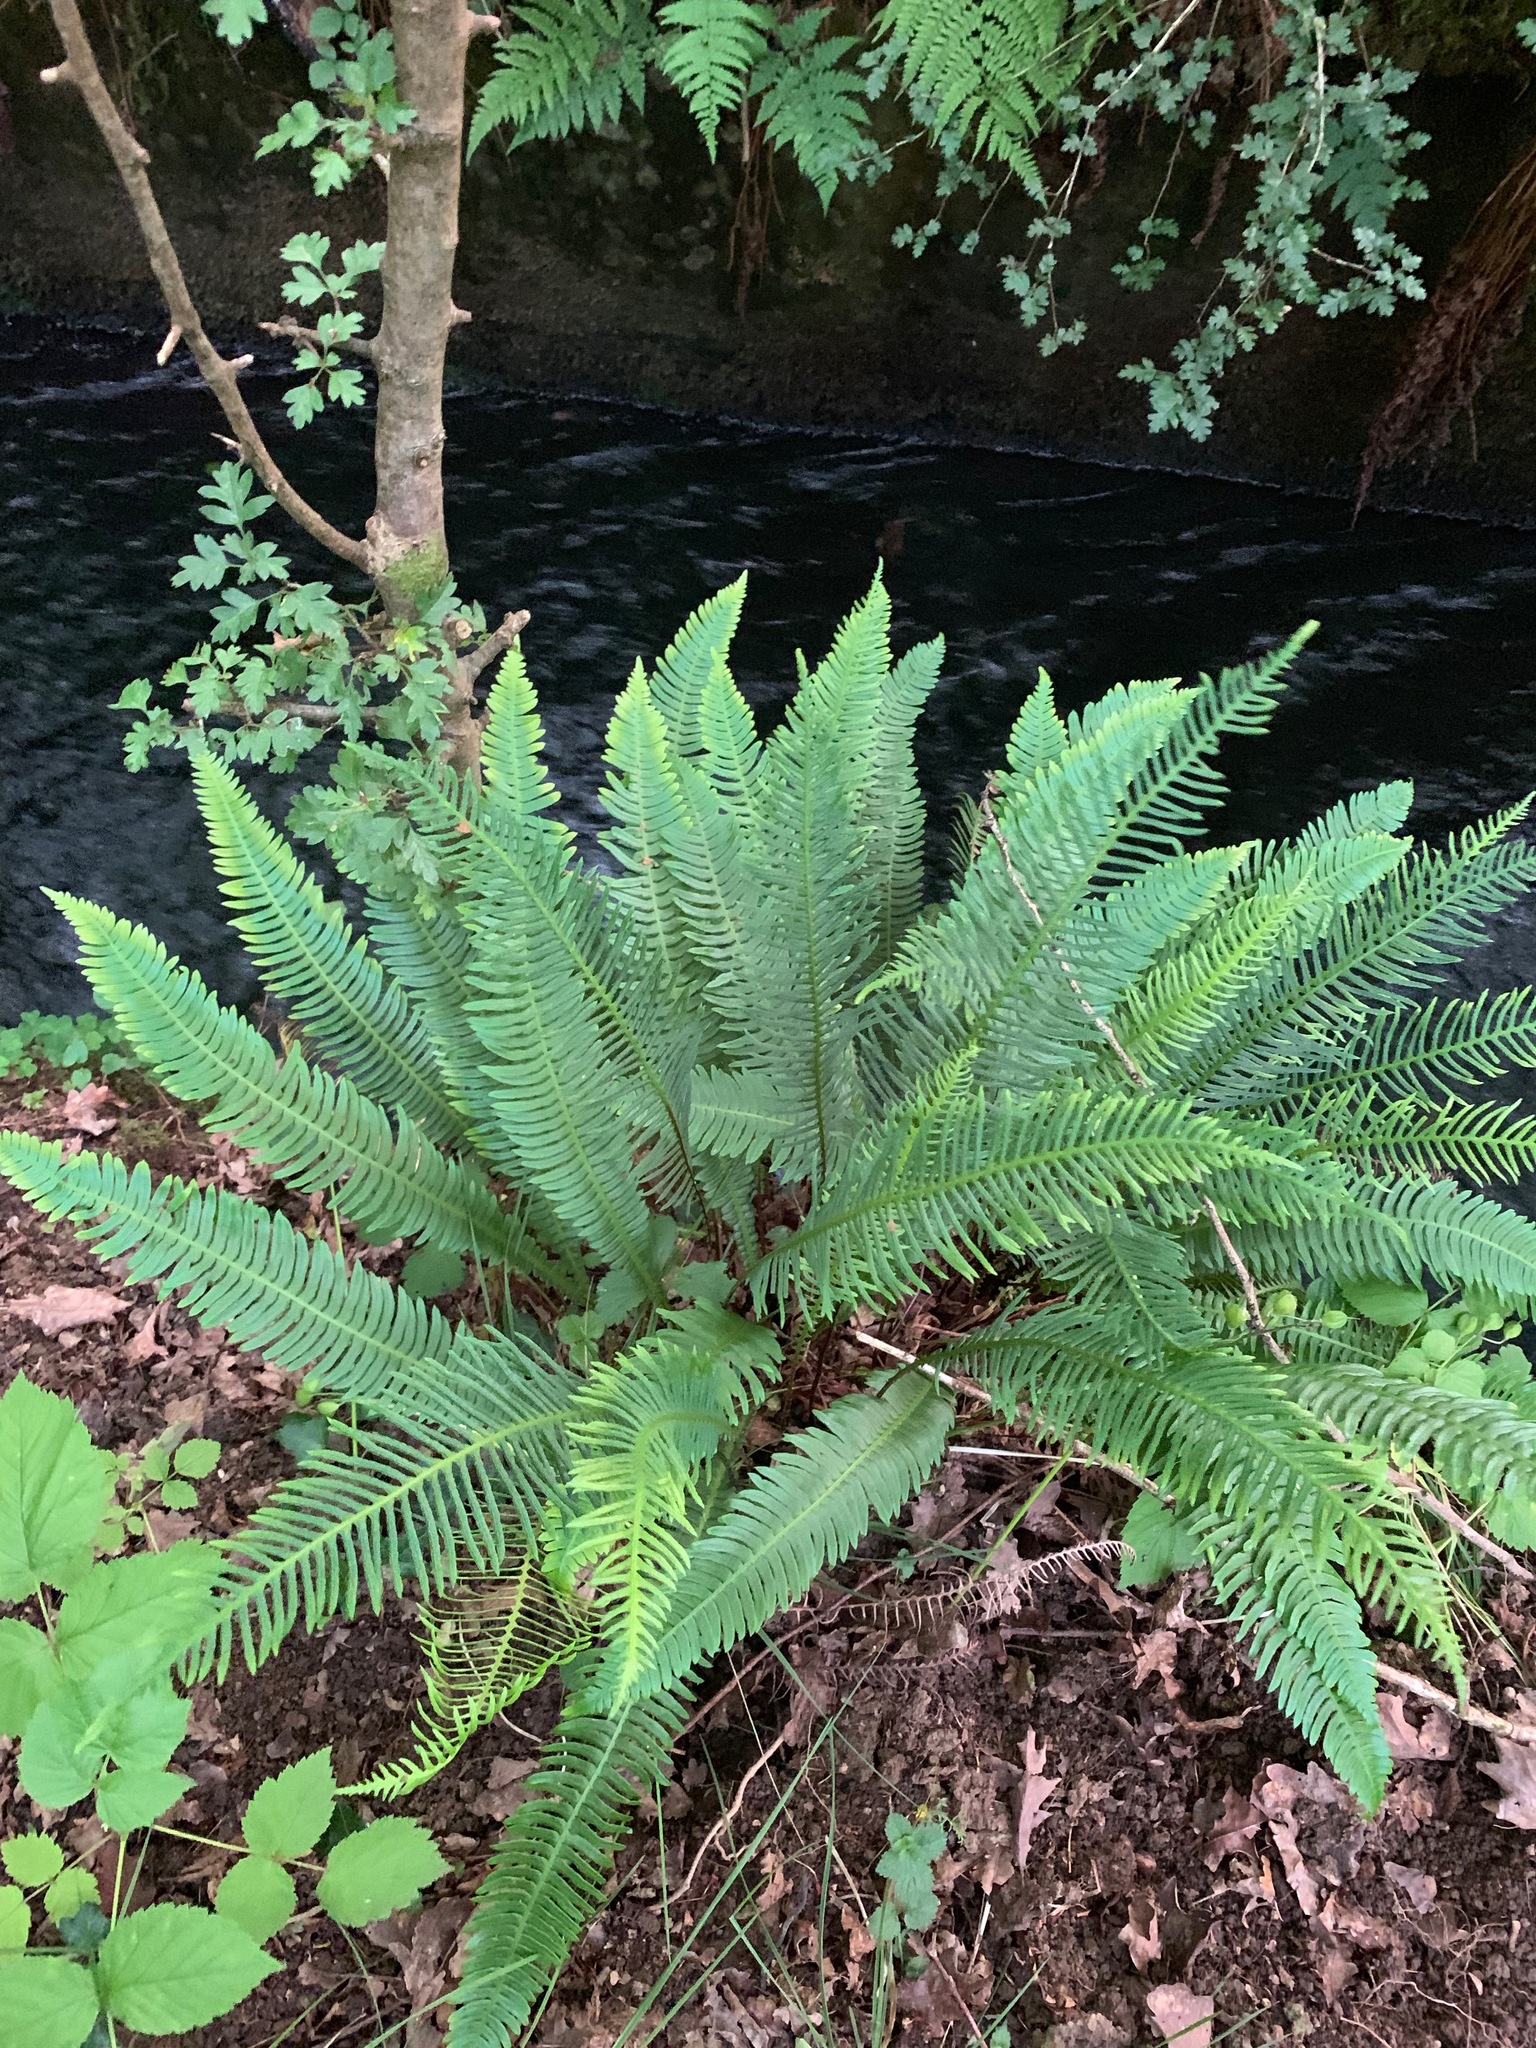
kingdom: Plantae
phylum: Tracheophyta
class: Polypodiopsida
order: Polypodiales
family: Blechnaceae
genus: Struthiopteris
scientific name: Struthiopteris spicant
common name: Deer fern
